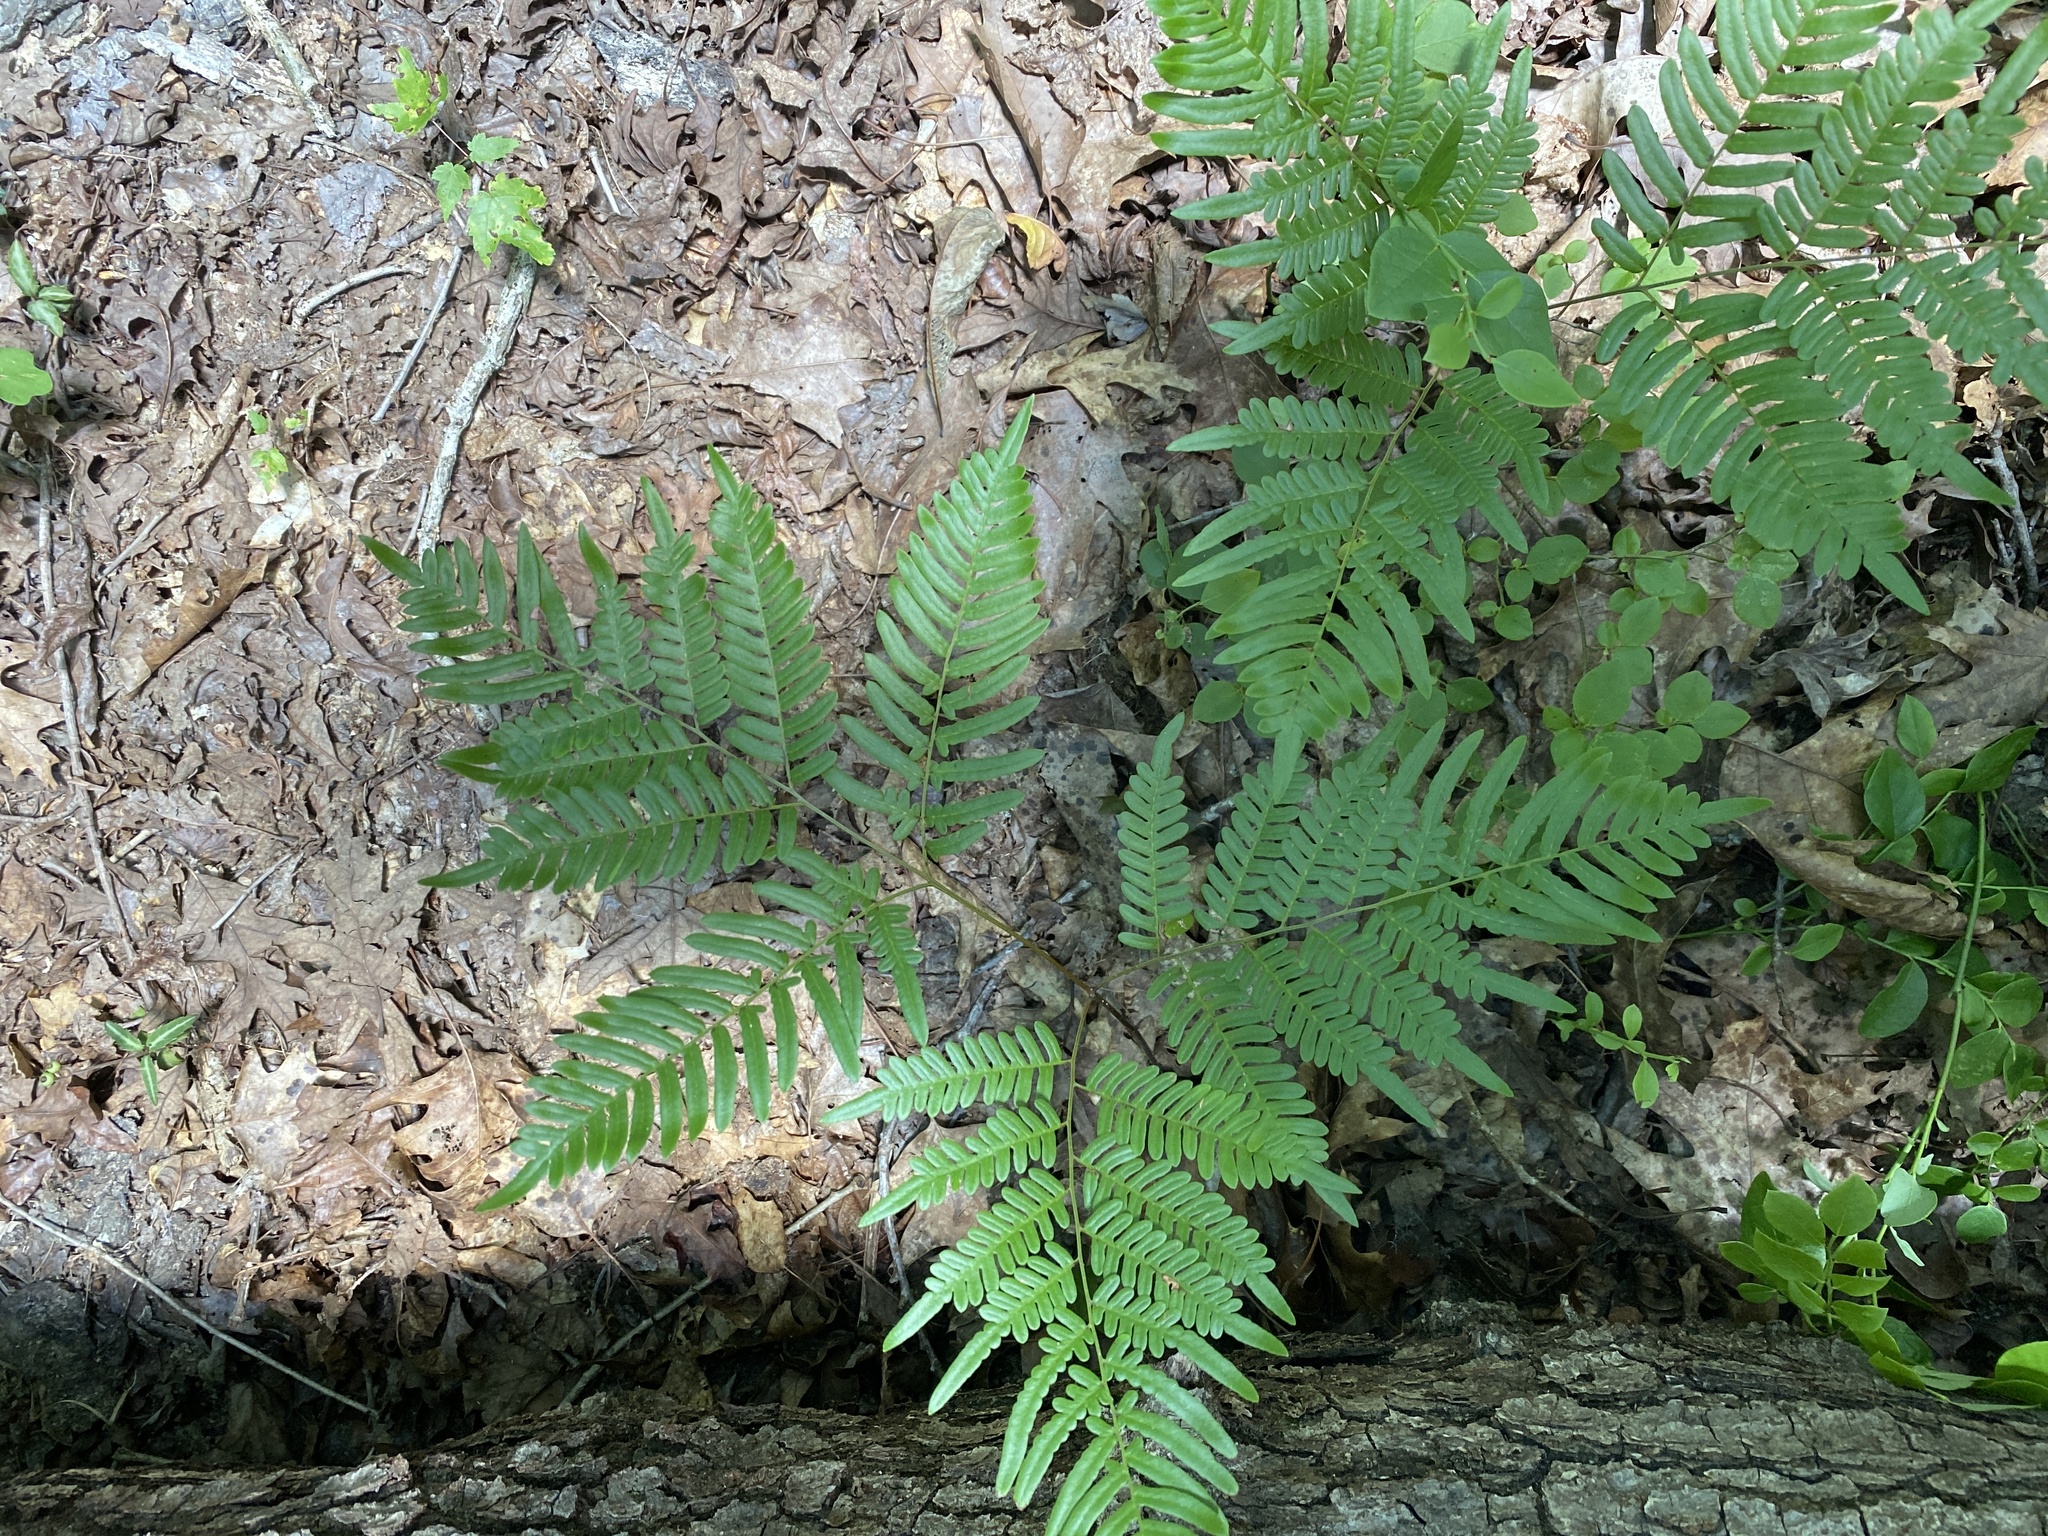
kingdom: Plantae
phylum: Tracheophyta
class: Polypodiopsida
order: Polypodiales
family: Dennstaedtiaceae
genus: Pteridium
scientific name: Pteridium aquilinum
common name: Bracken
